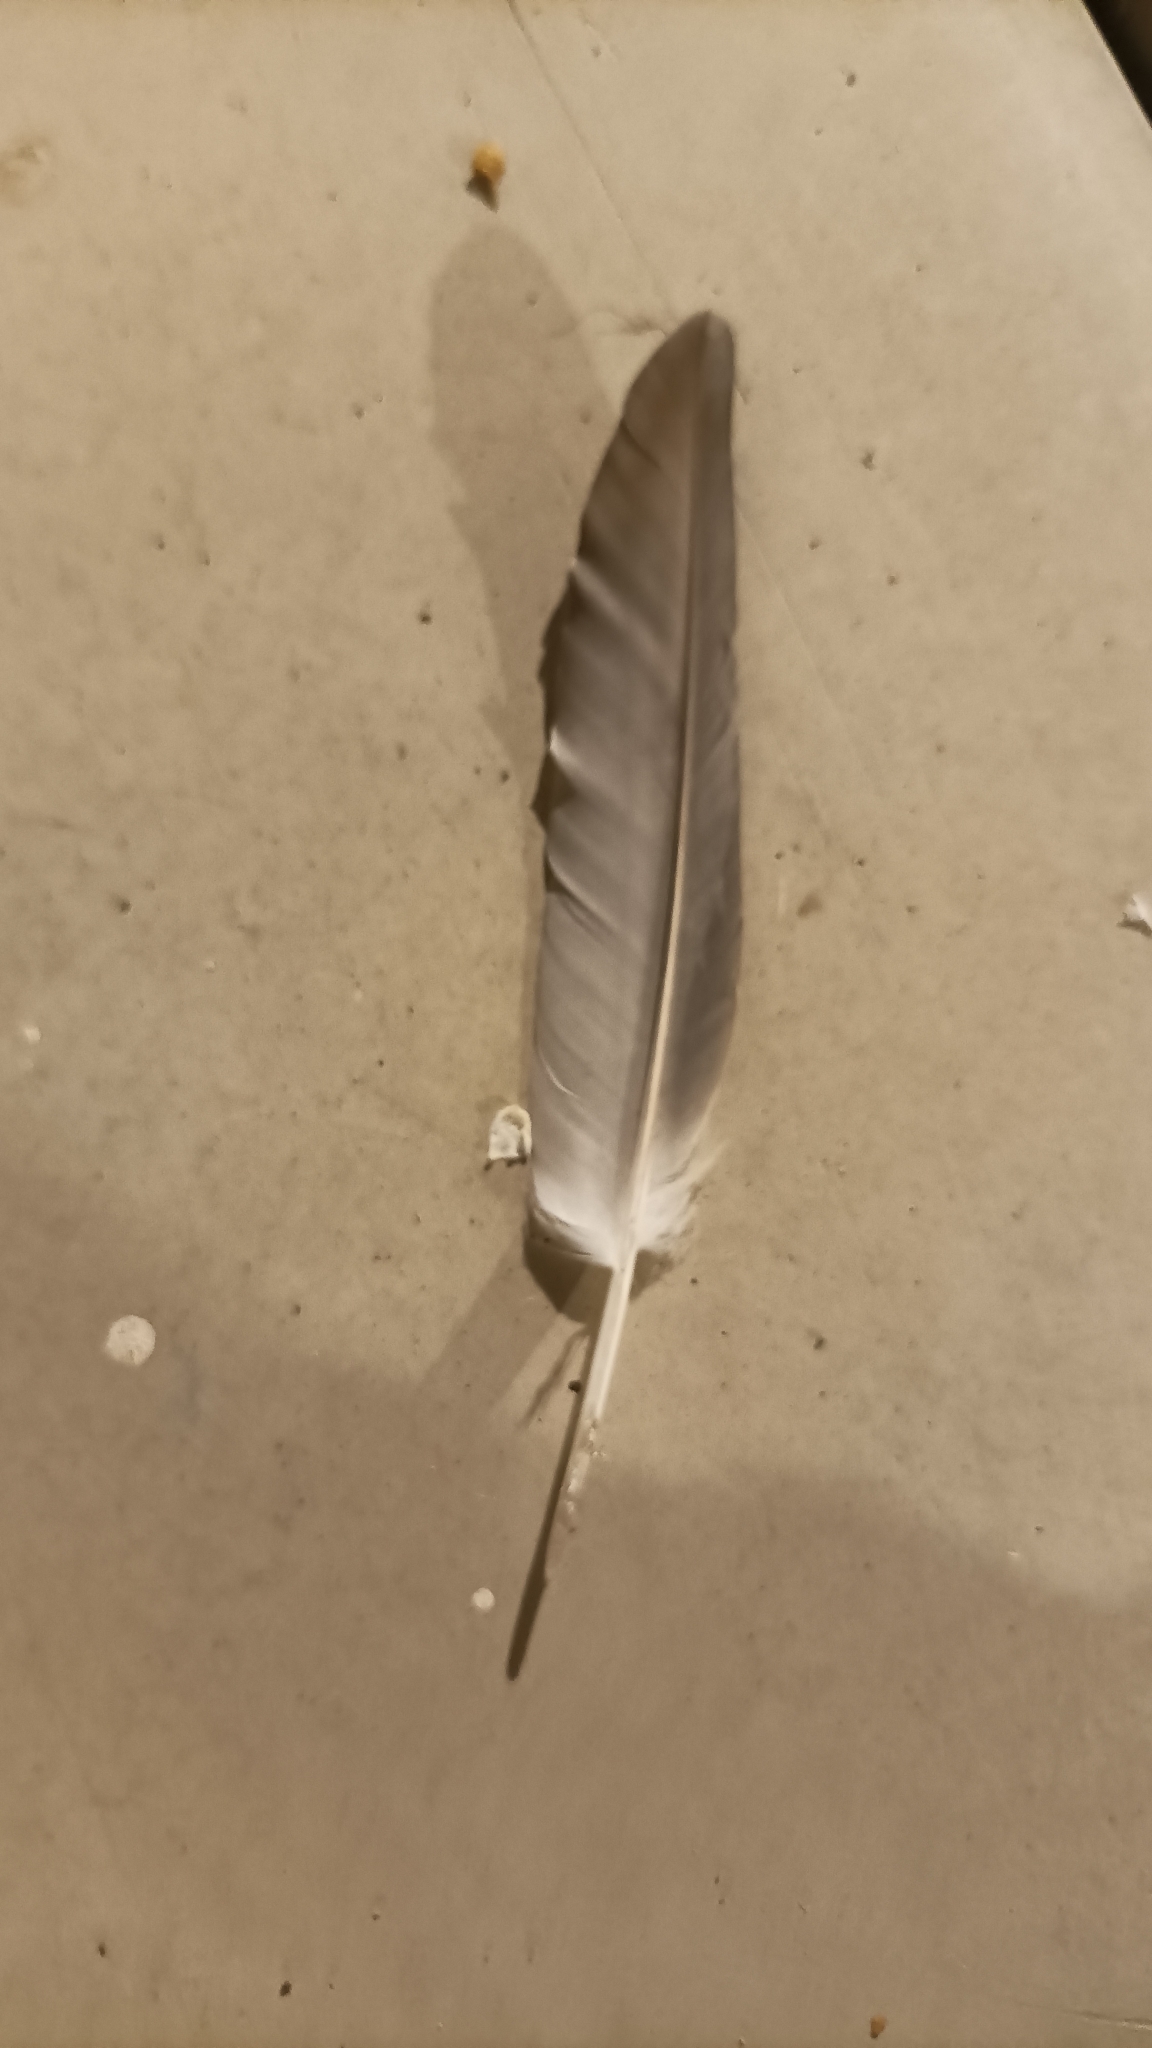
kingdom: Animalia
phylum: Chordata
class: Aves
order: Columbiformes
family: Columbidae
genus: Columba
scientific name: Columba livia
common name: Rock pigeon
